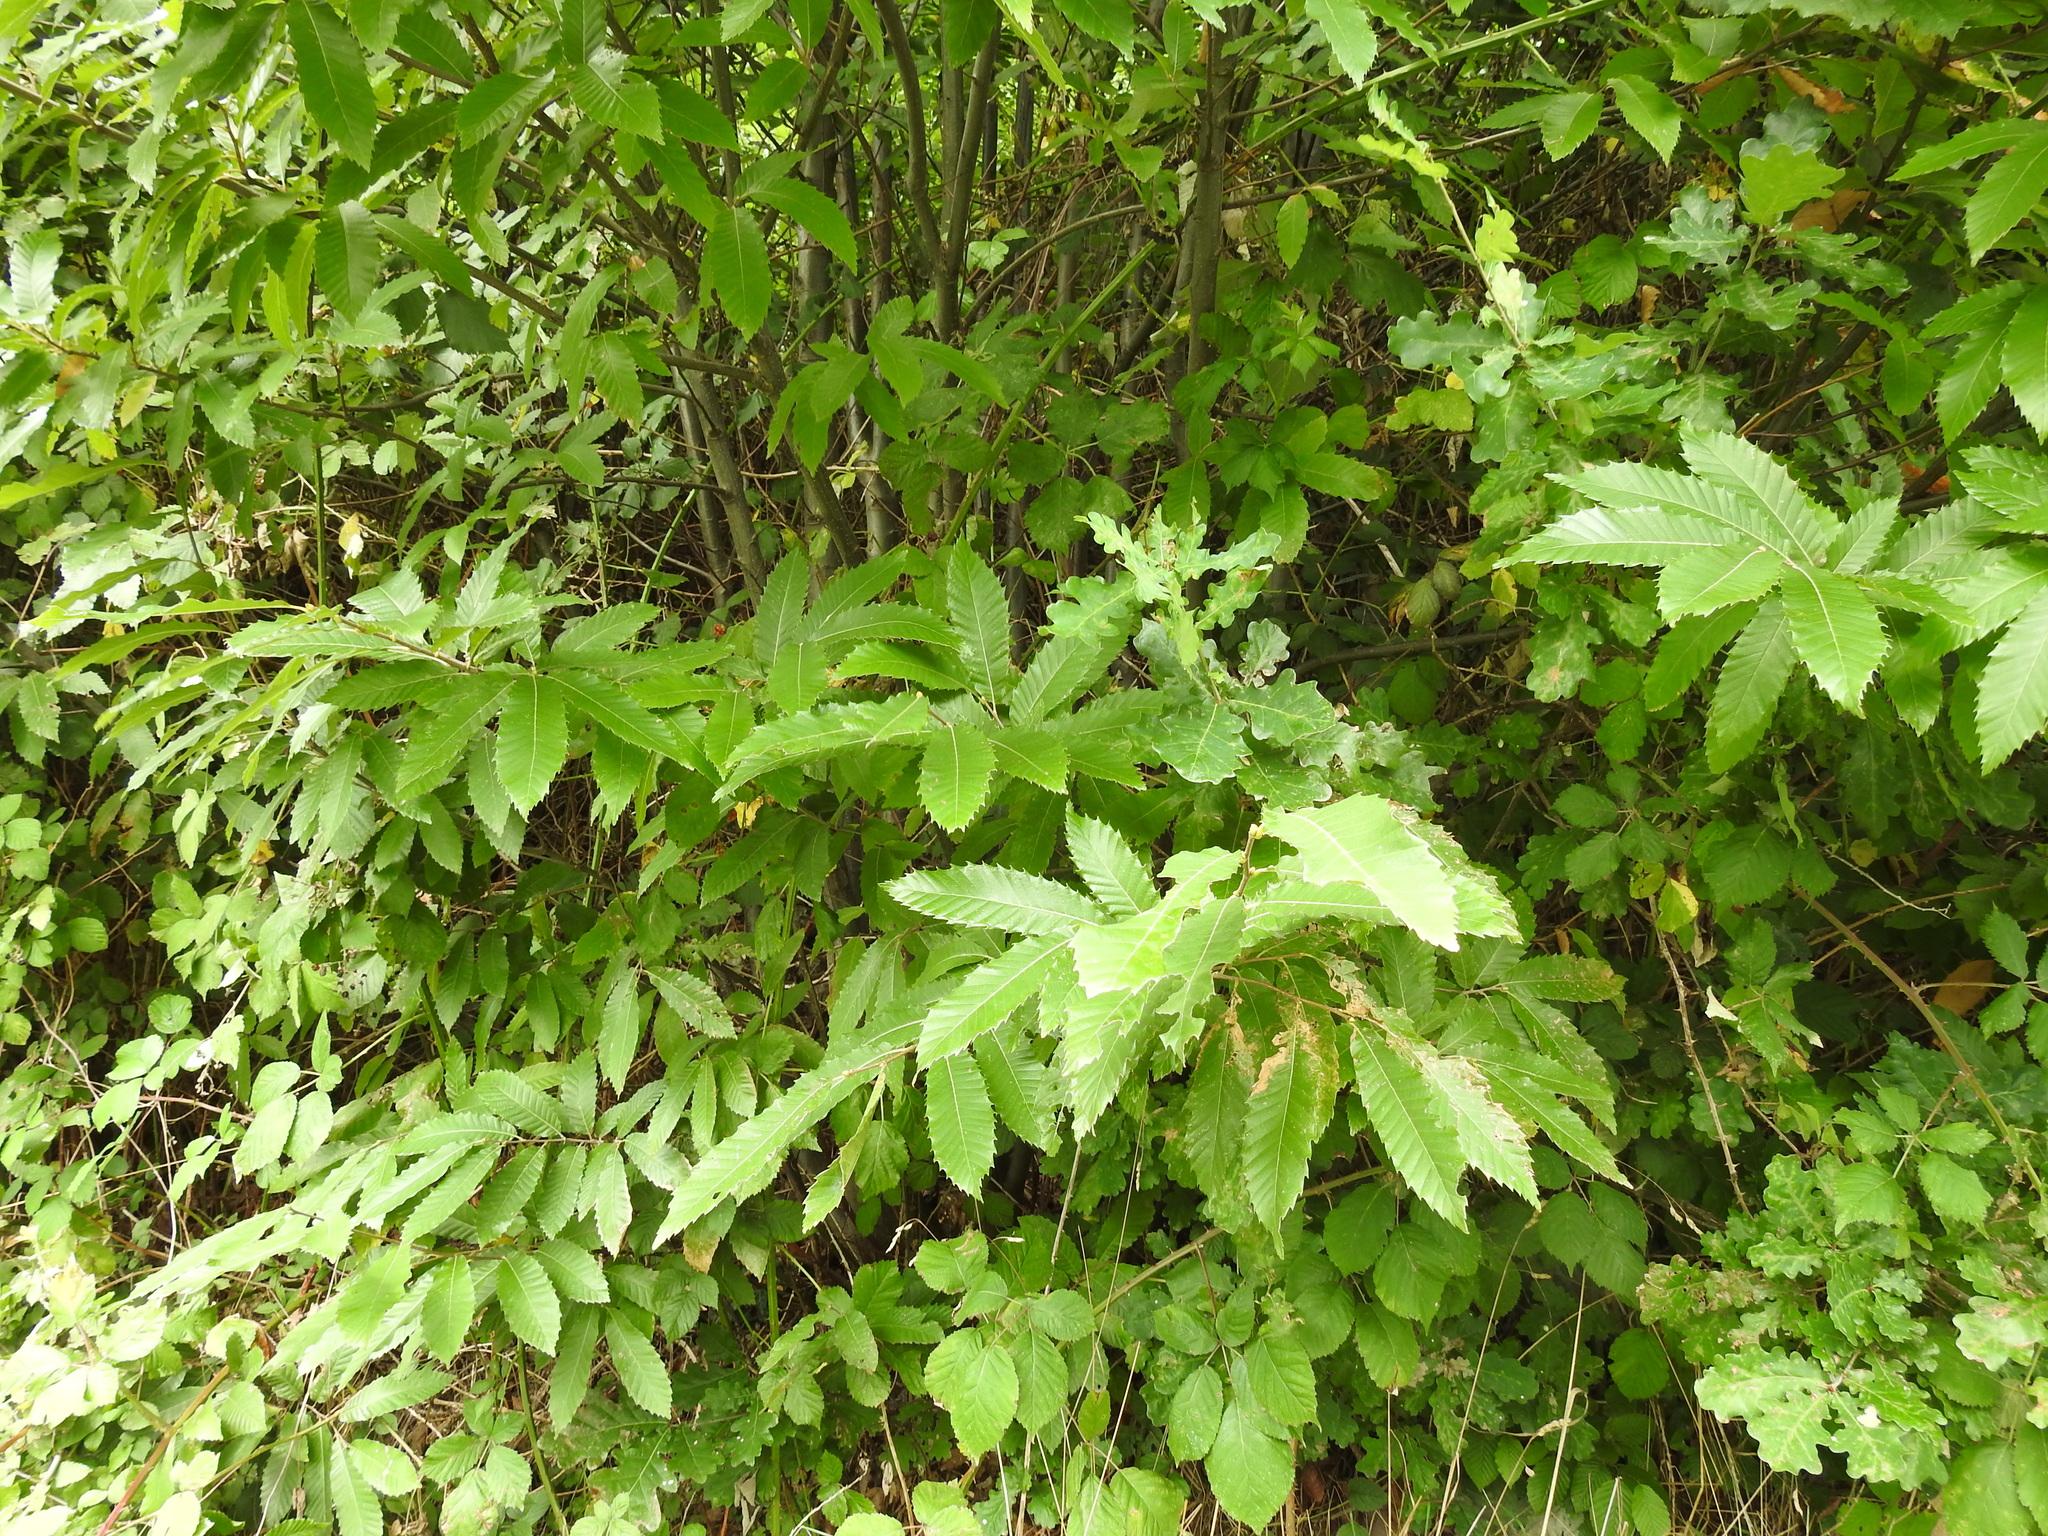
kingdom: Plantae
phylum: Tracheophyta
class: Magnoliopsida
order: Fagales
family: Fagaceae
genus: Castanea
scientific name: Castanea sativa
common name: Sweet chestnut
